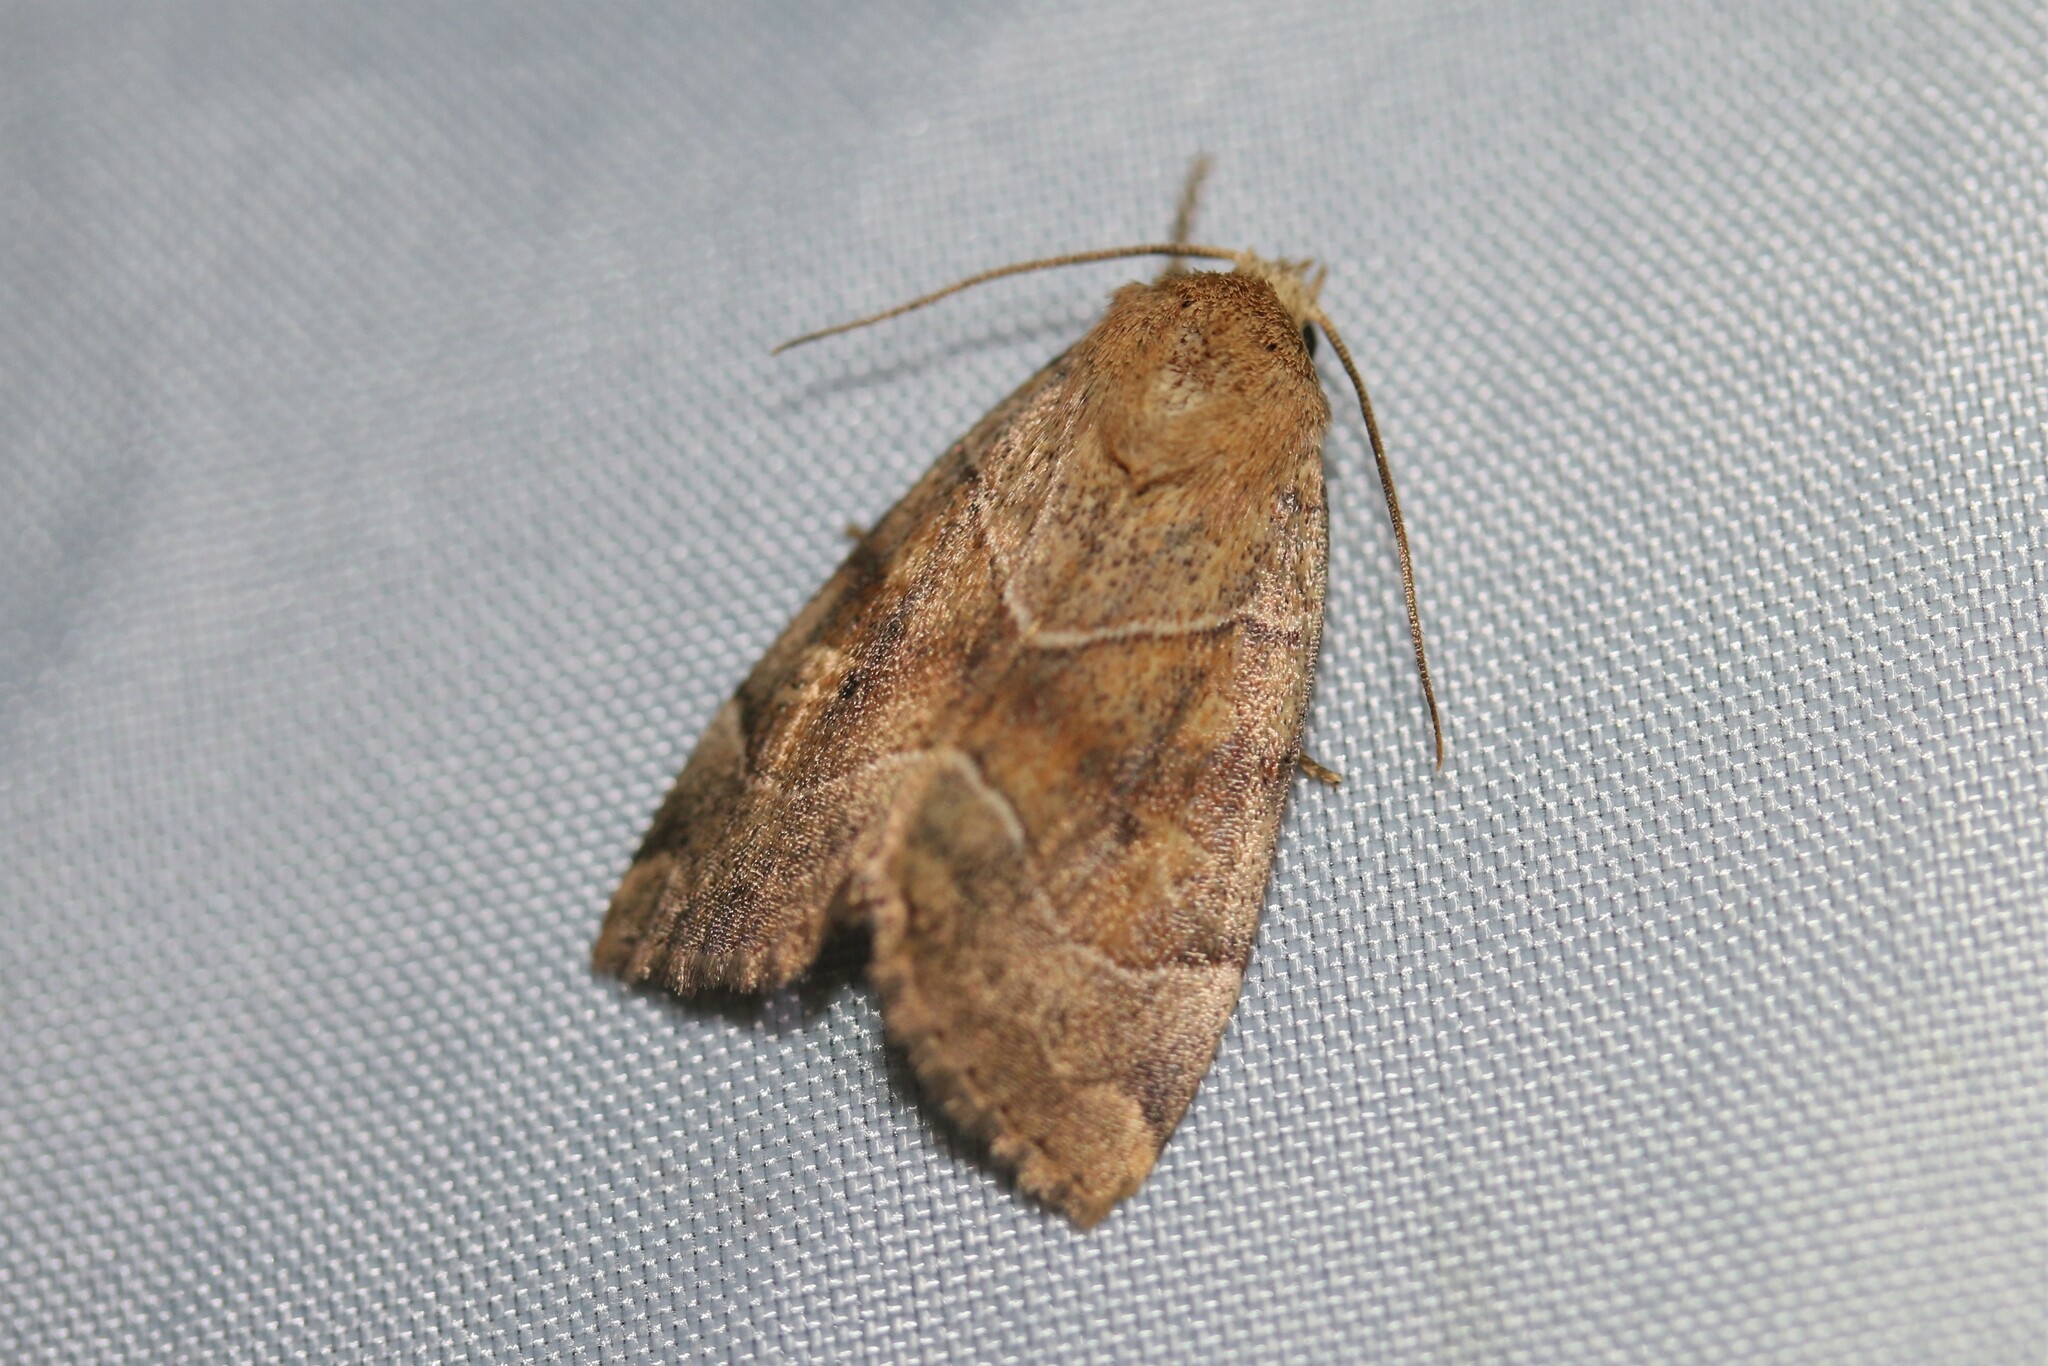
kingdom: Animalia
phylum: Arthropoda
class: Insecta
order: Lepidoptera
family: Noctuidae
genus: Cosmia
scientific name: Cosmia trapezina
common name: Dun-bar
